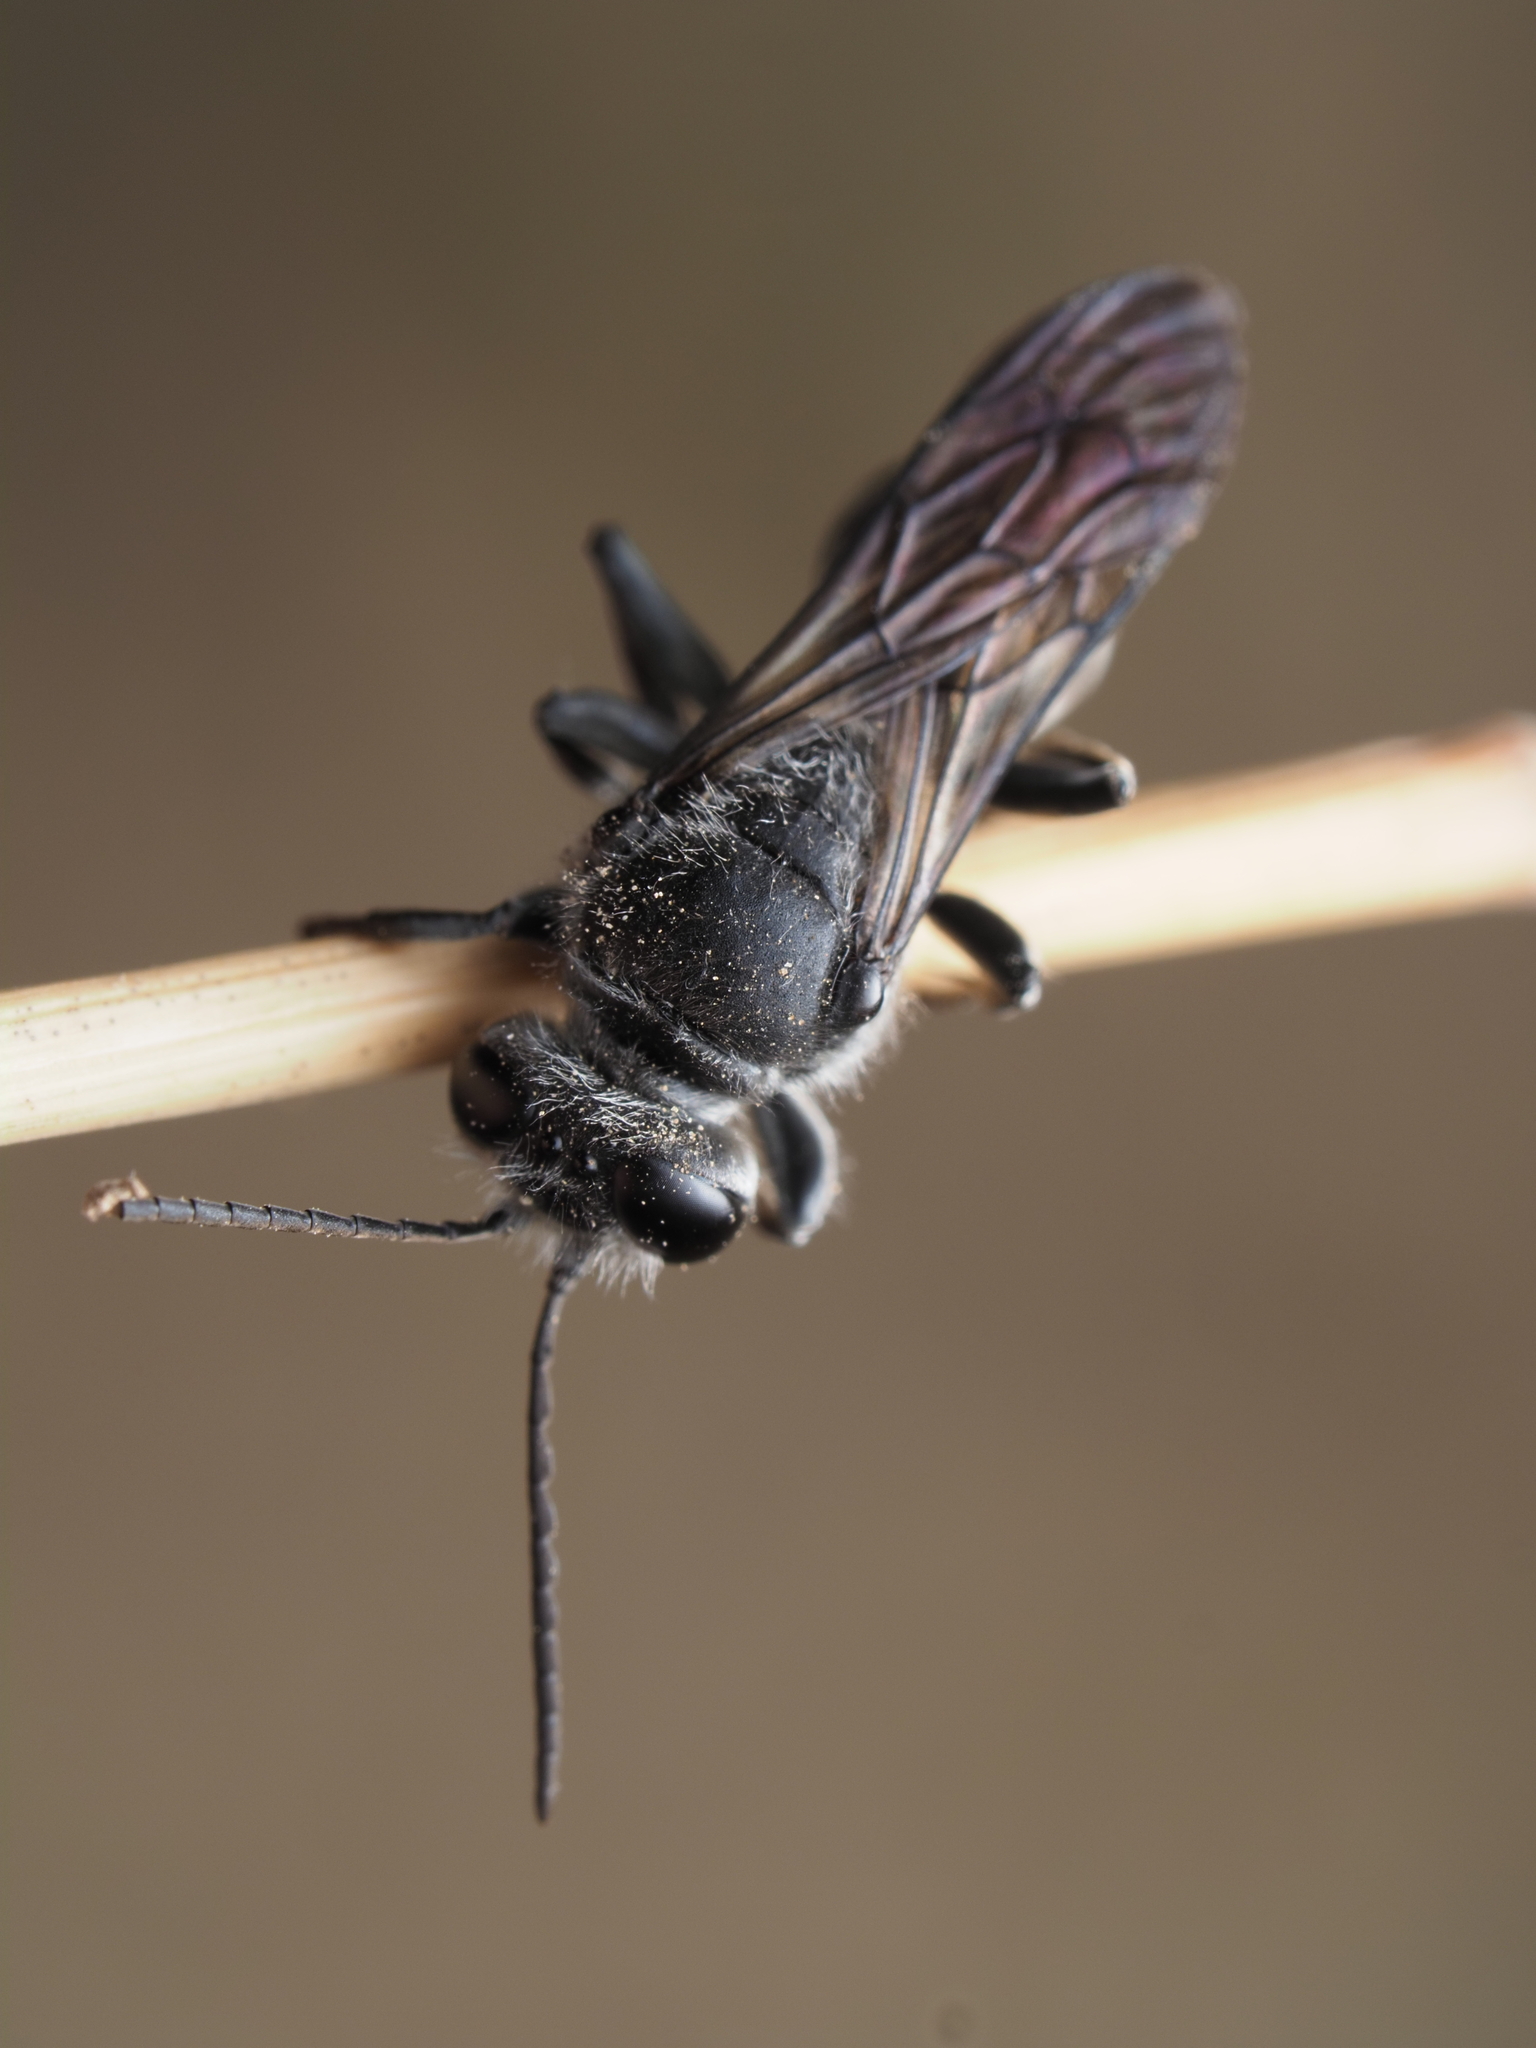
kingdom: Animalia
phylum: Arthropoda
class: Insecta
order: Hymenoptera
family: Crabronidae
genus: Pison
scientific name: Pison spinolae
